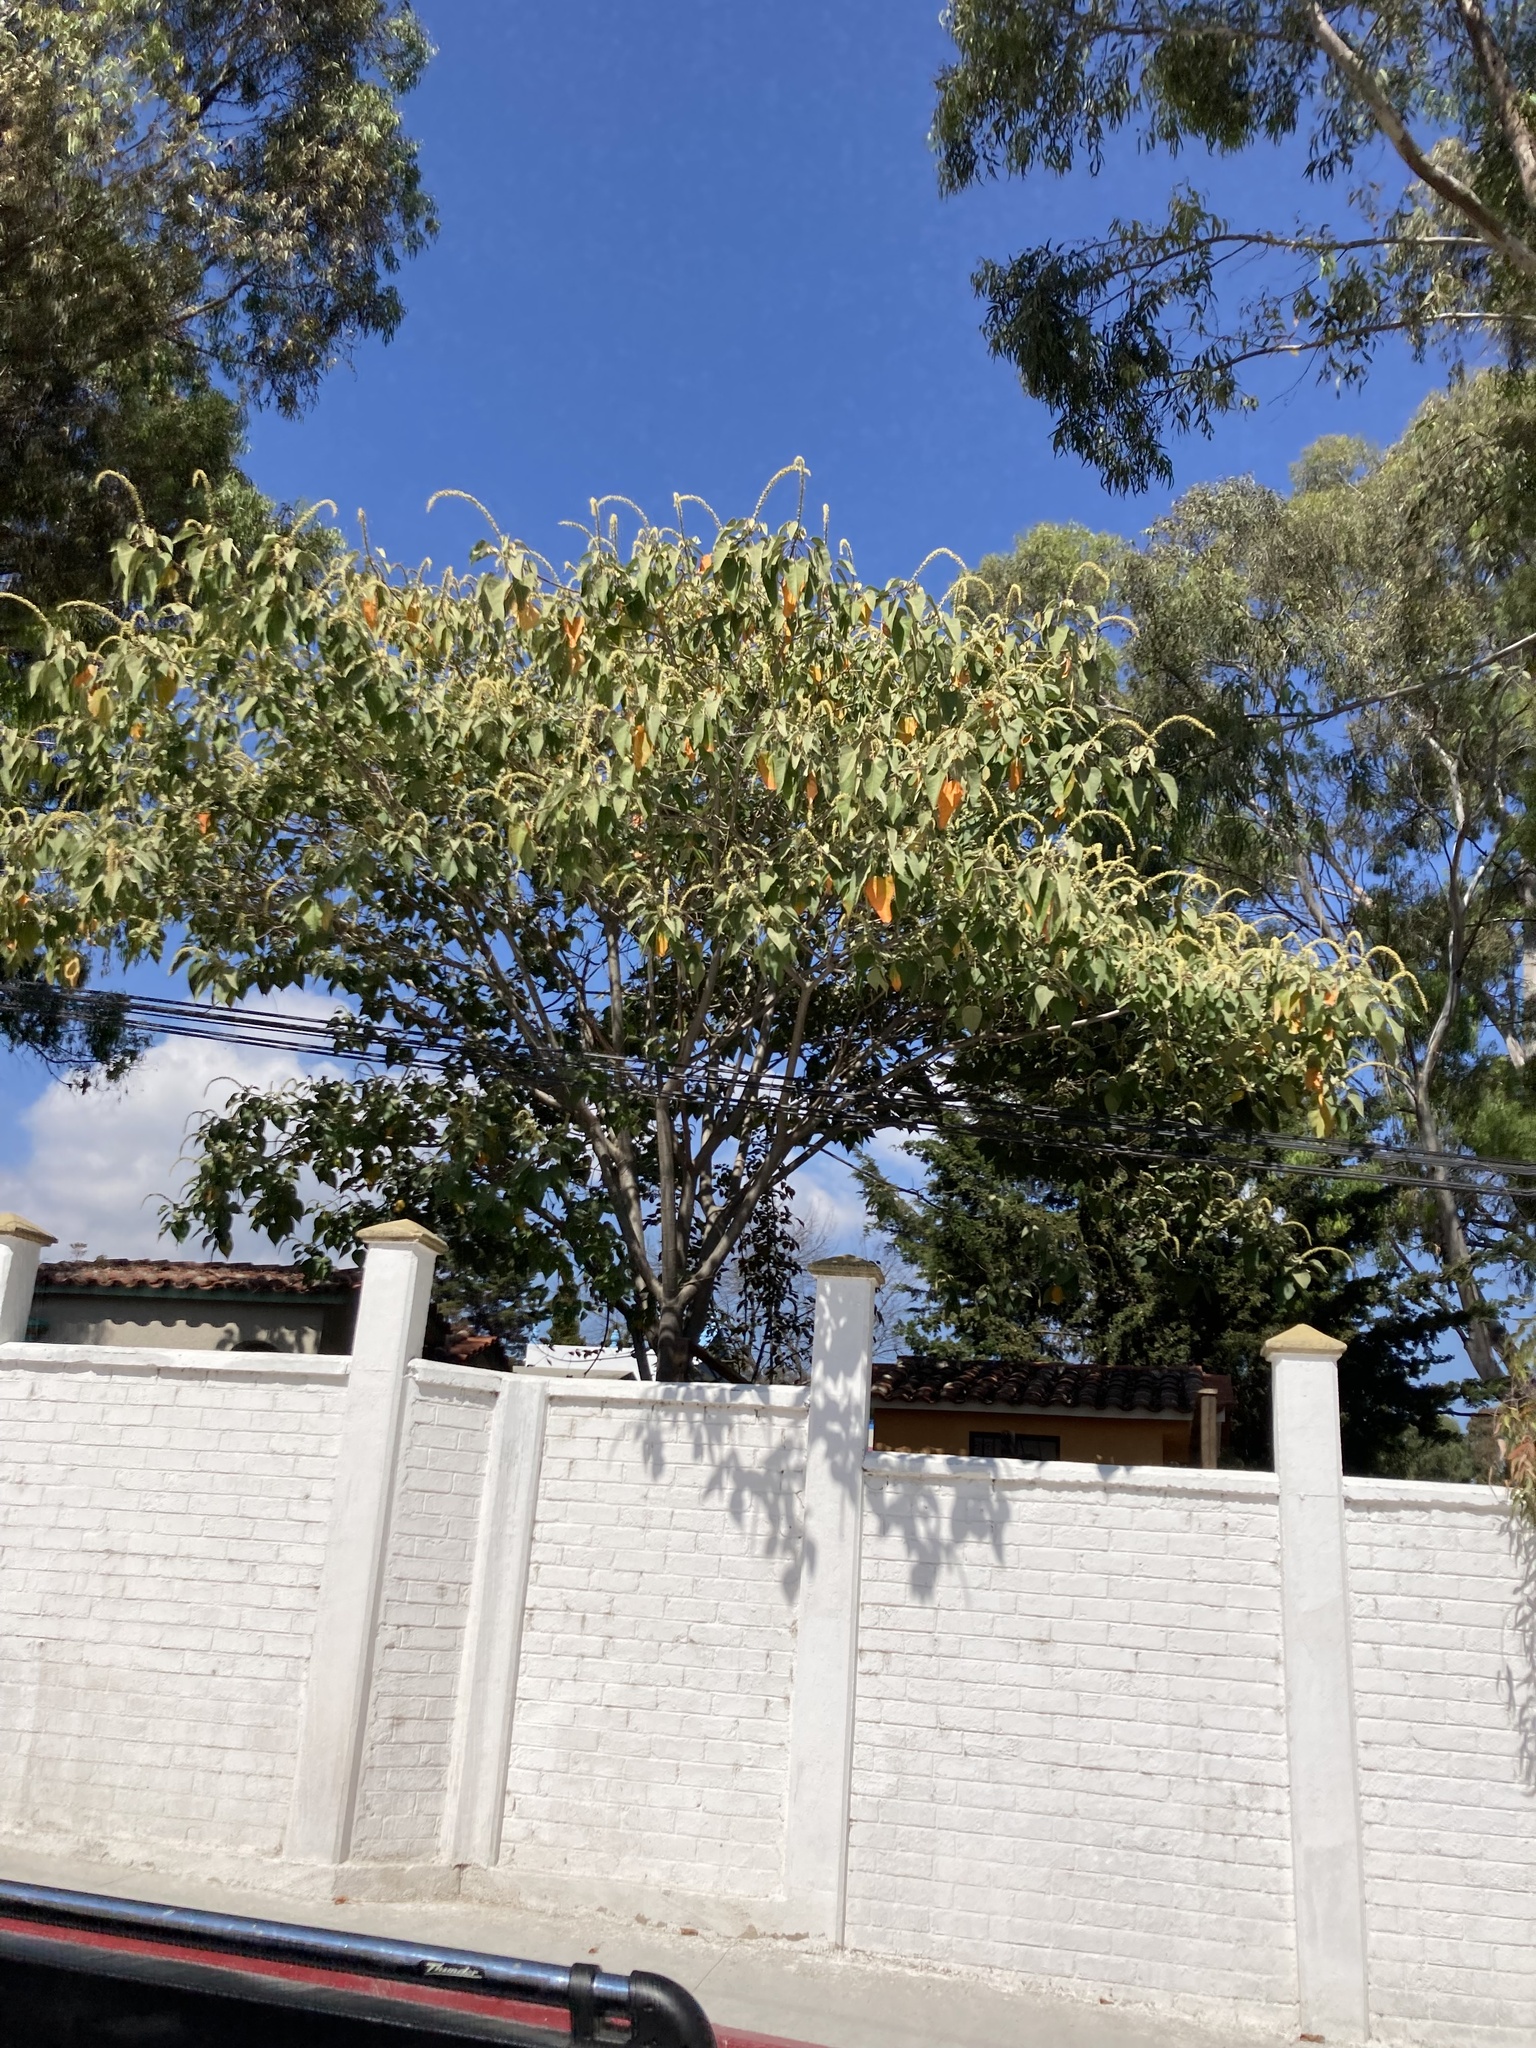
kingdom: Plantae
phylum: Tracheophyta
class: Magnoliopsida
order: Malpighiales
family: Euphorbiaceae
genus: Croton
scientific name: Croton draco
